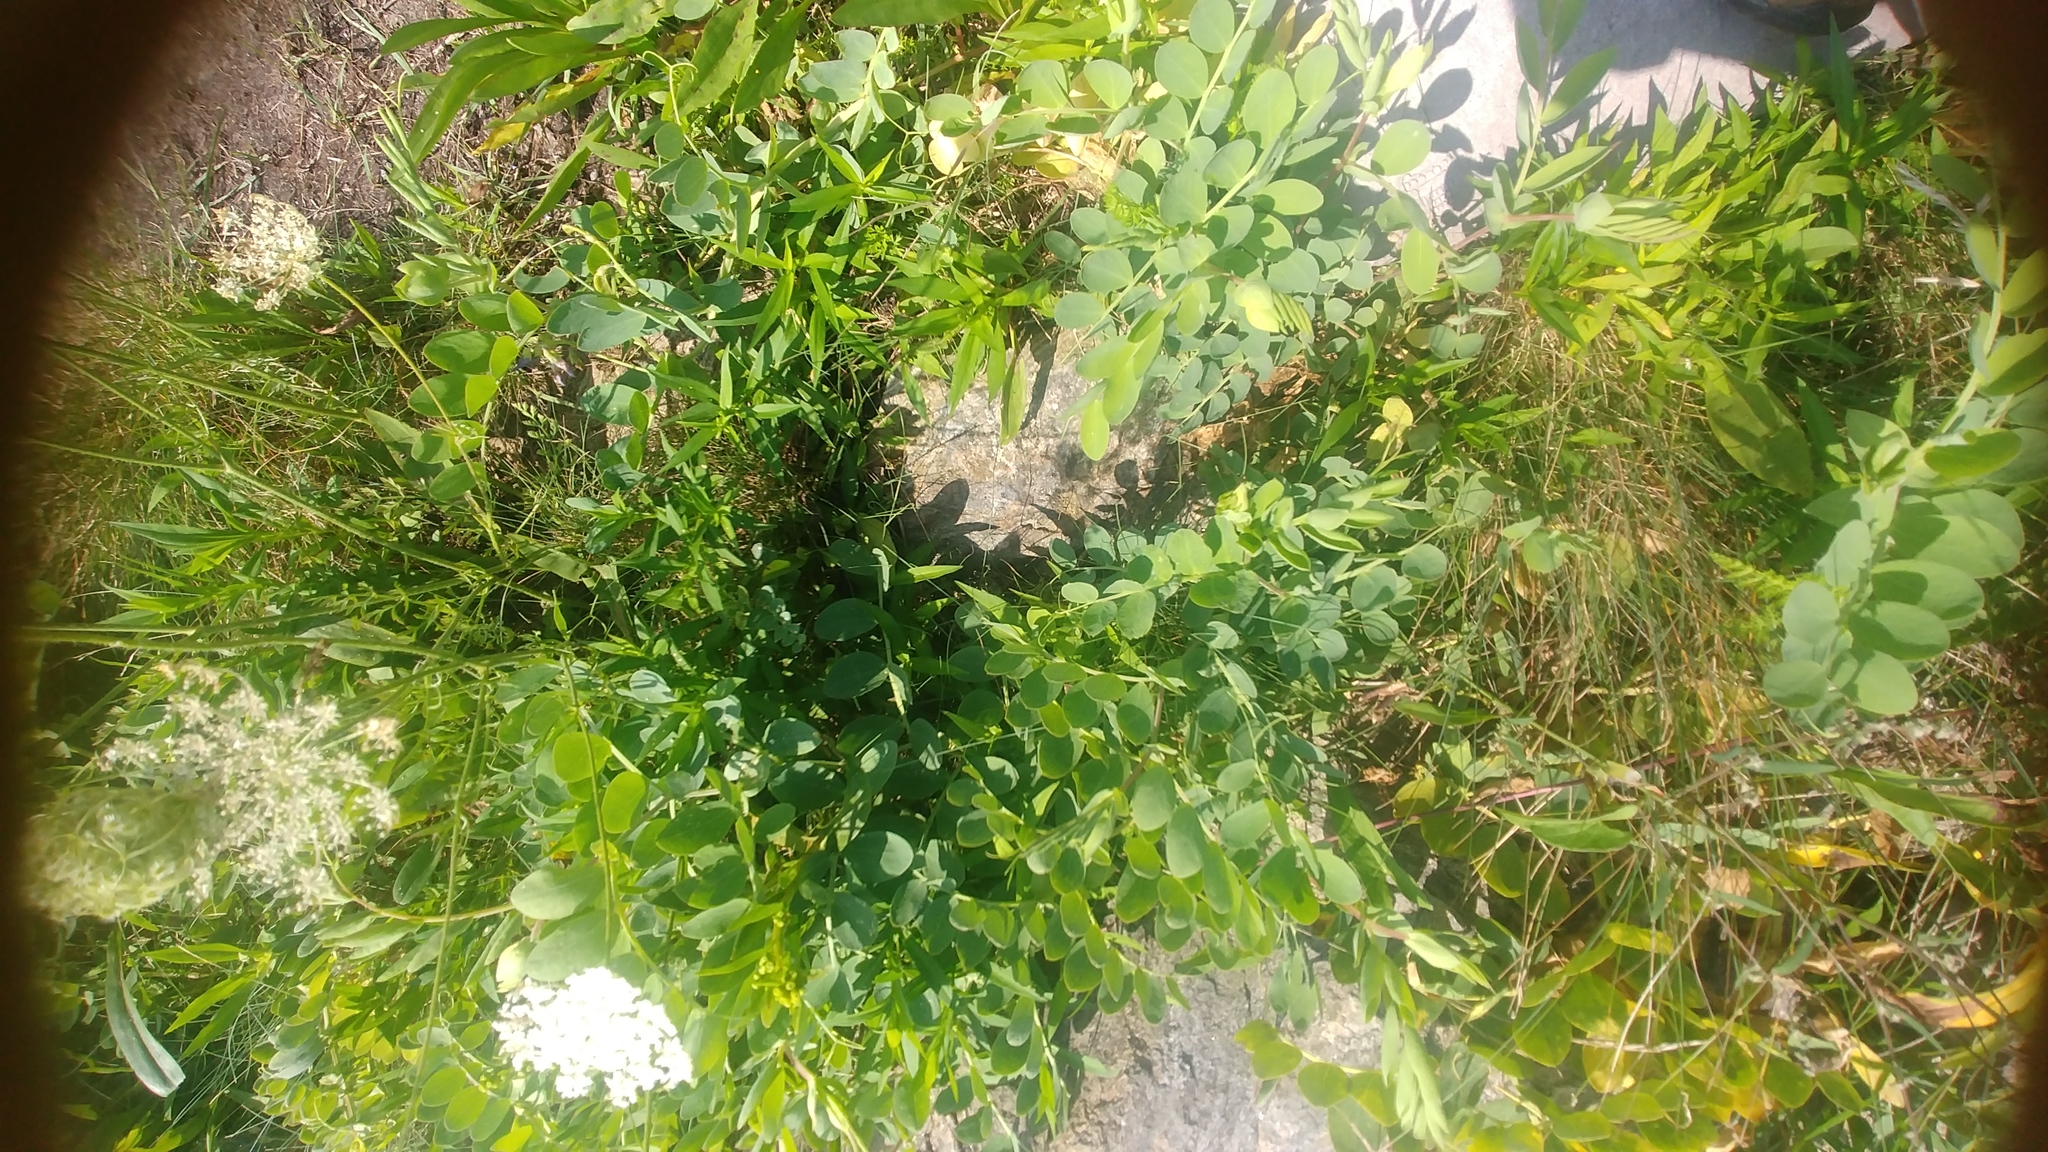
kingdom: Plantae
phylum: Tracheophyta
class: Magnoliopsida
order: Apiales
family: Apiaceae
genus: Daucus
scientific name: Daucus carota
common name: Wild carrot
